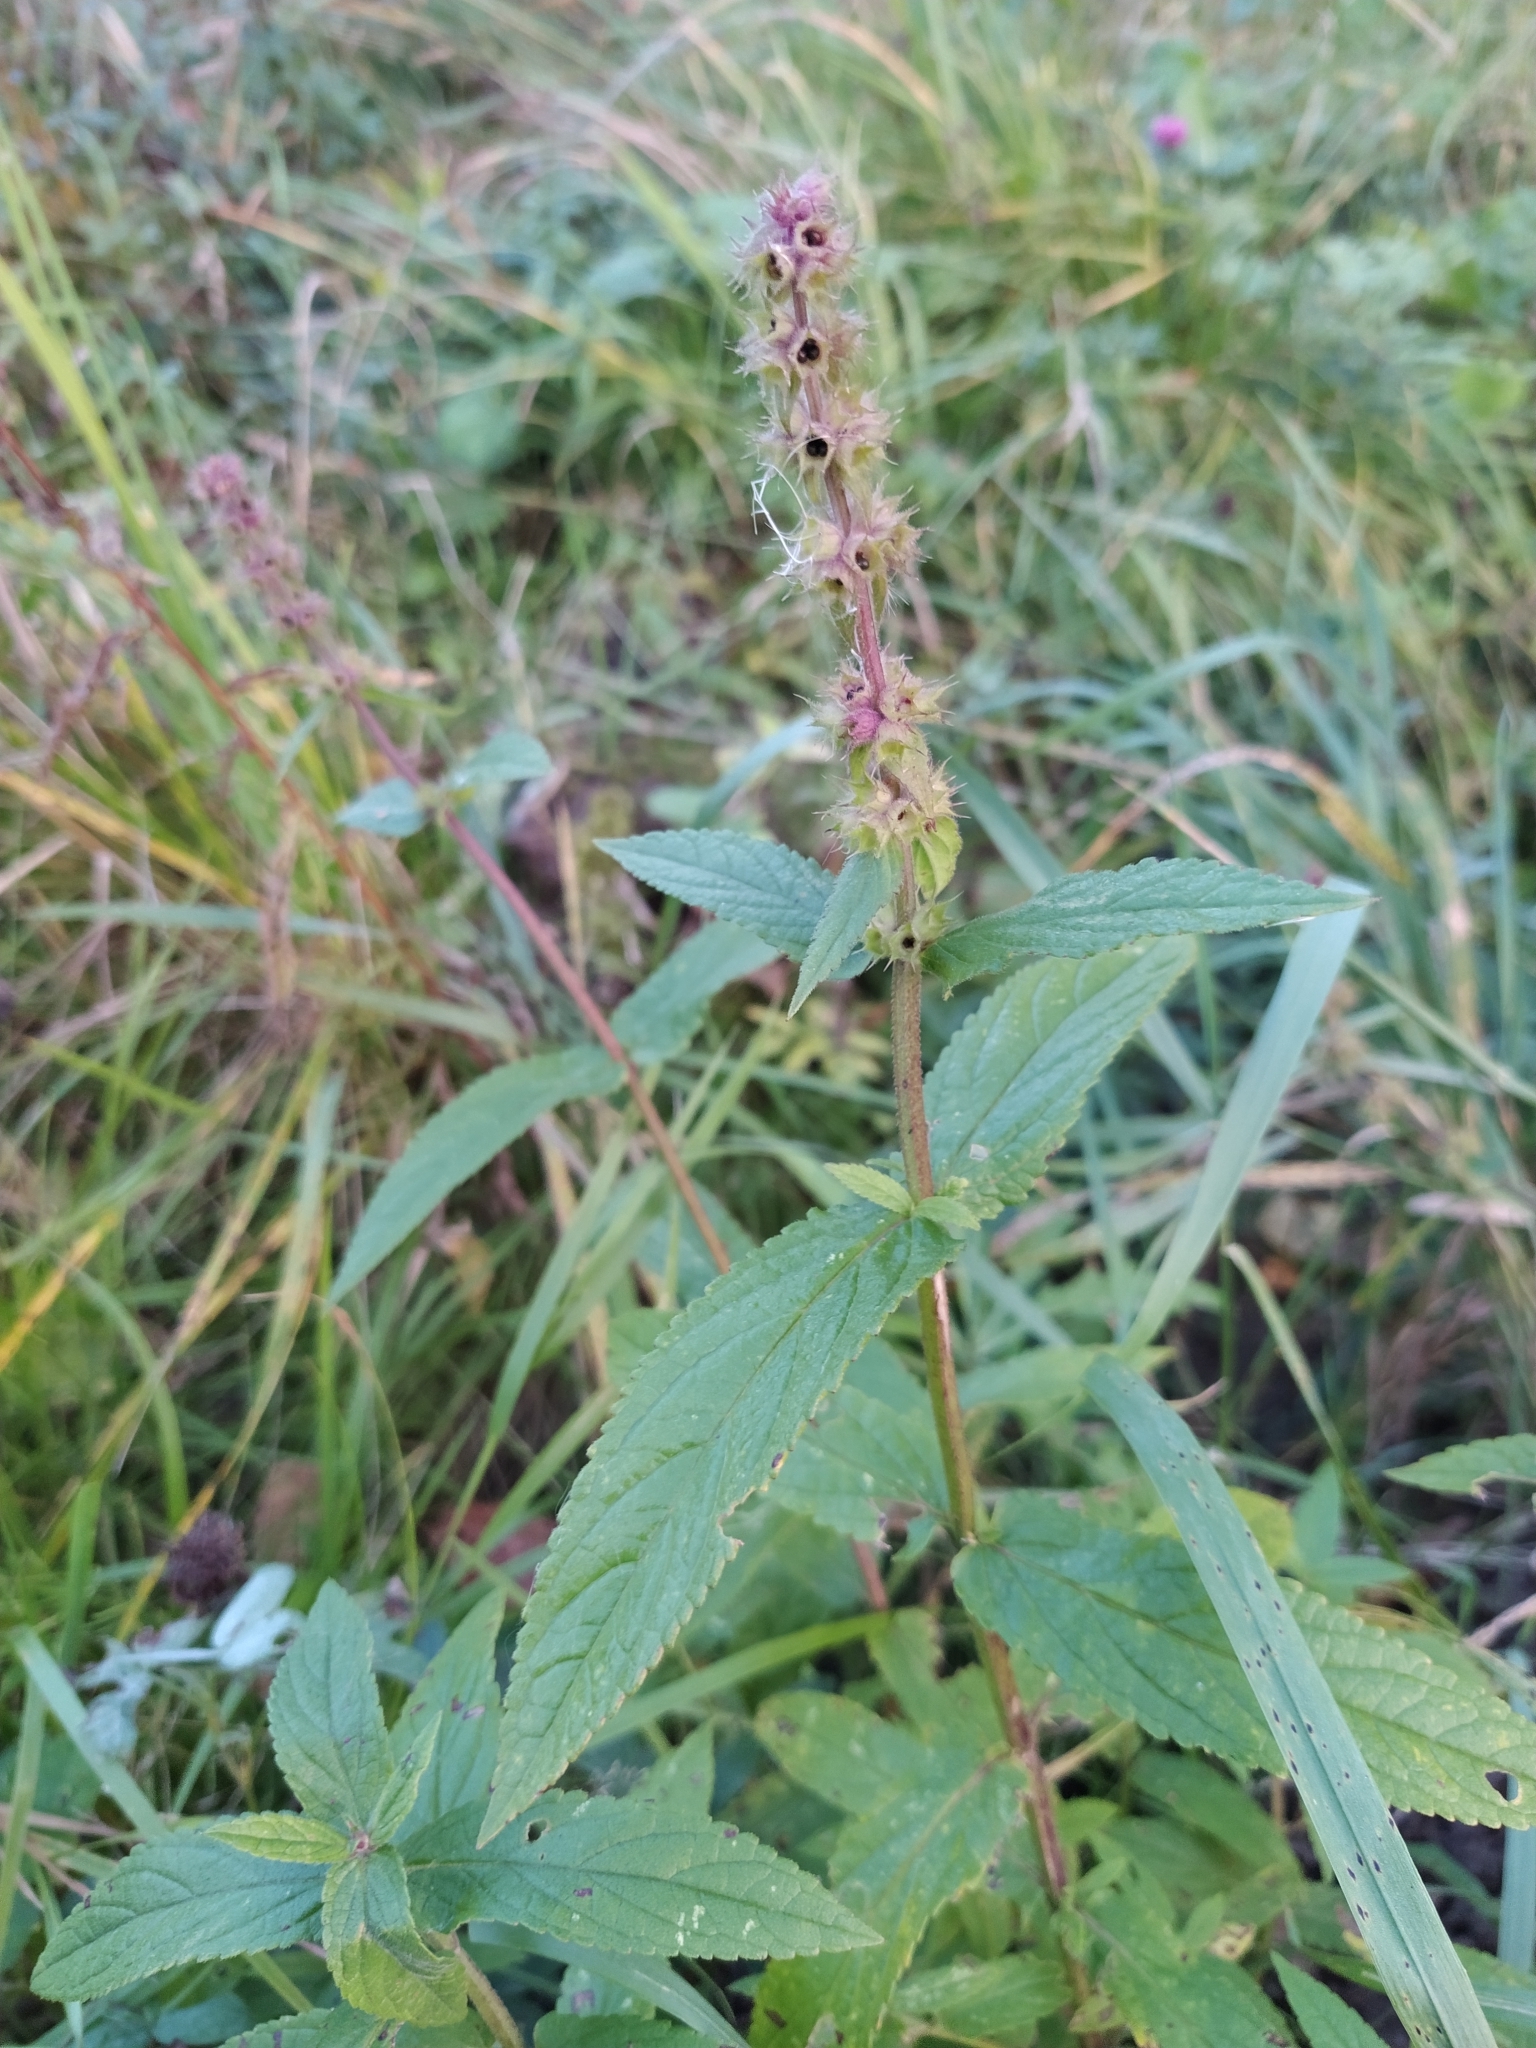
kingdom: Plantae
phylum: Tracheophyta
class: Magnoliopsida
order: Lamiales
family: Lamiaceae
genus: Stachys
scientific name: Stachys palustris
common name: Marsh woundwort
